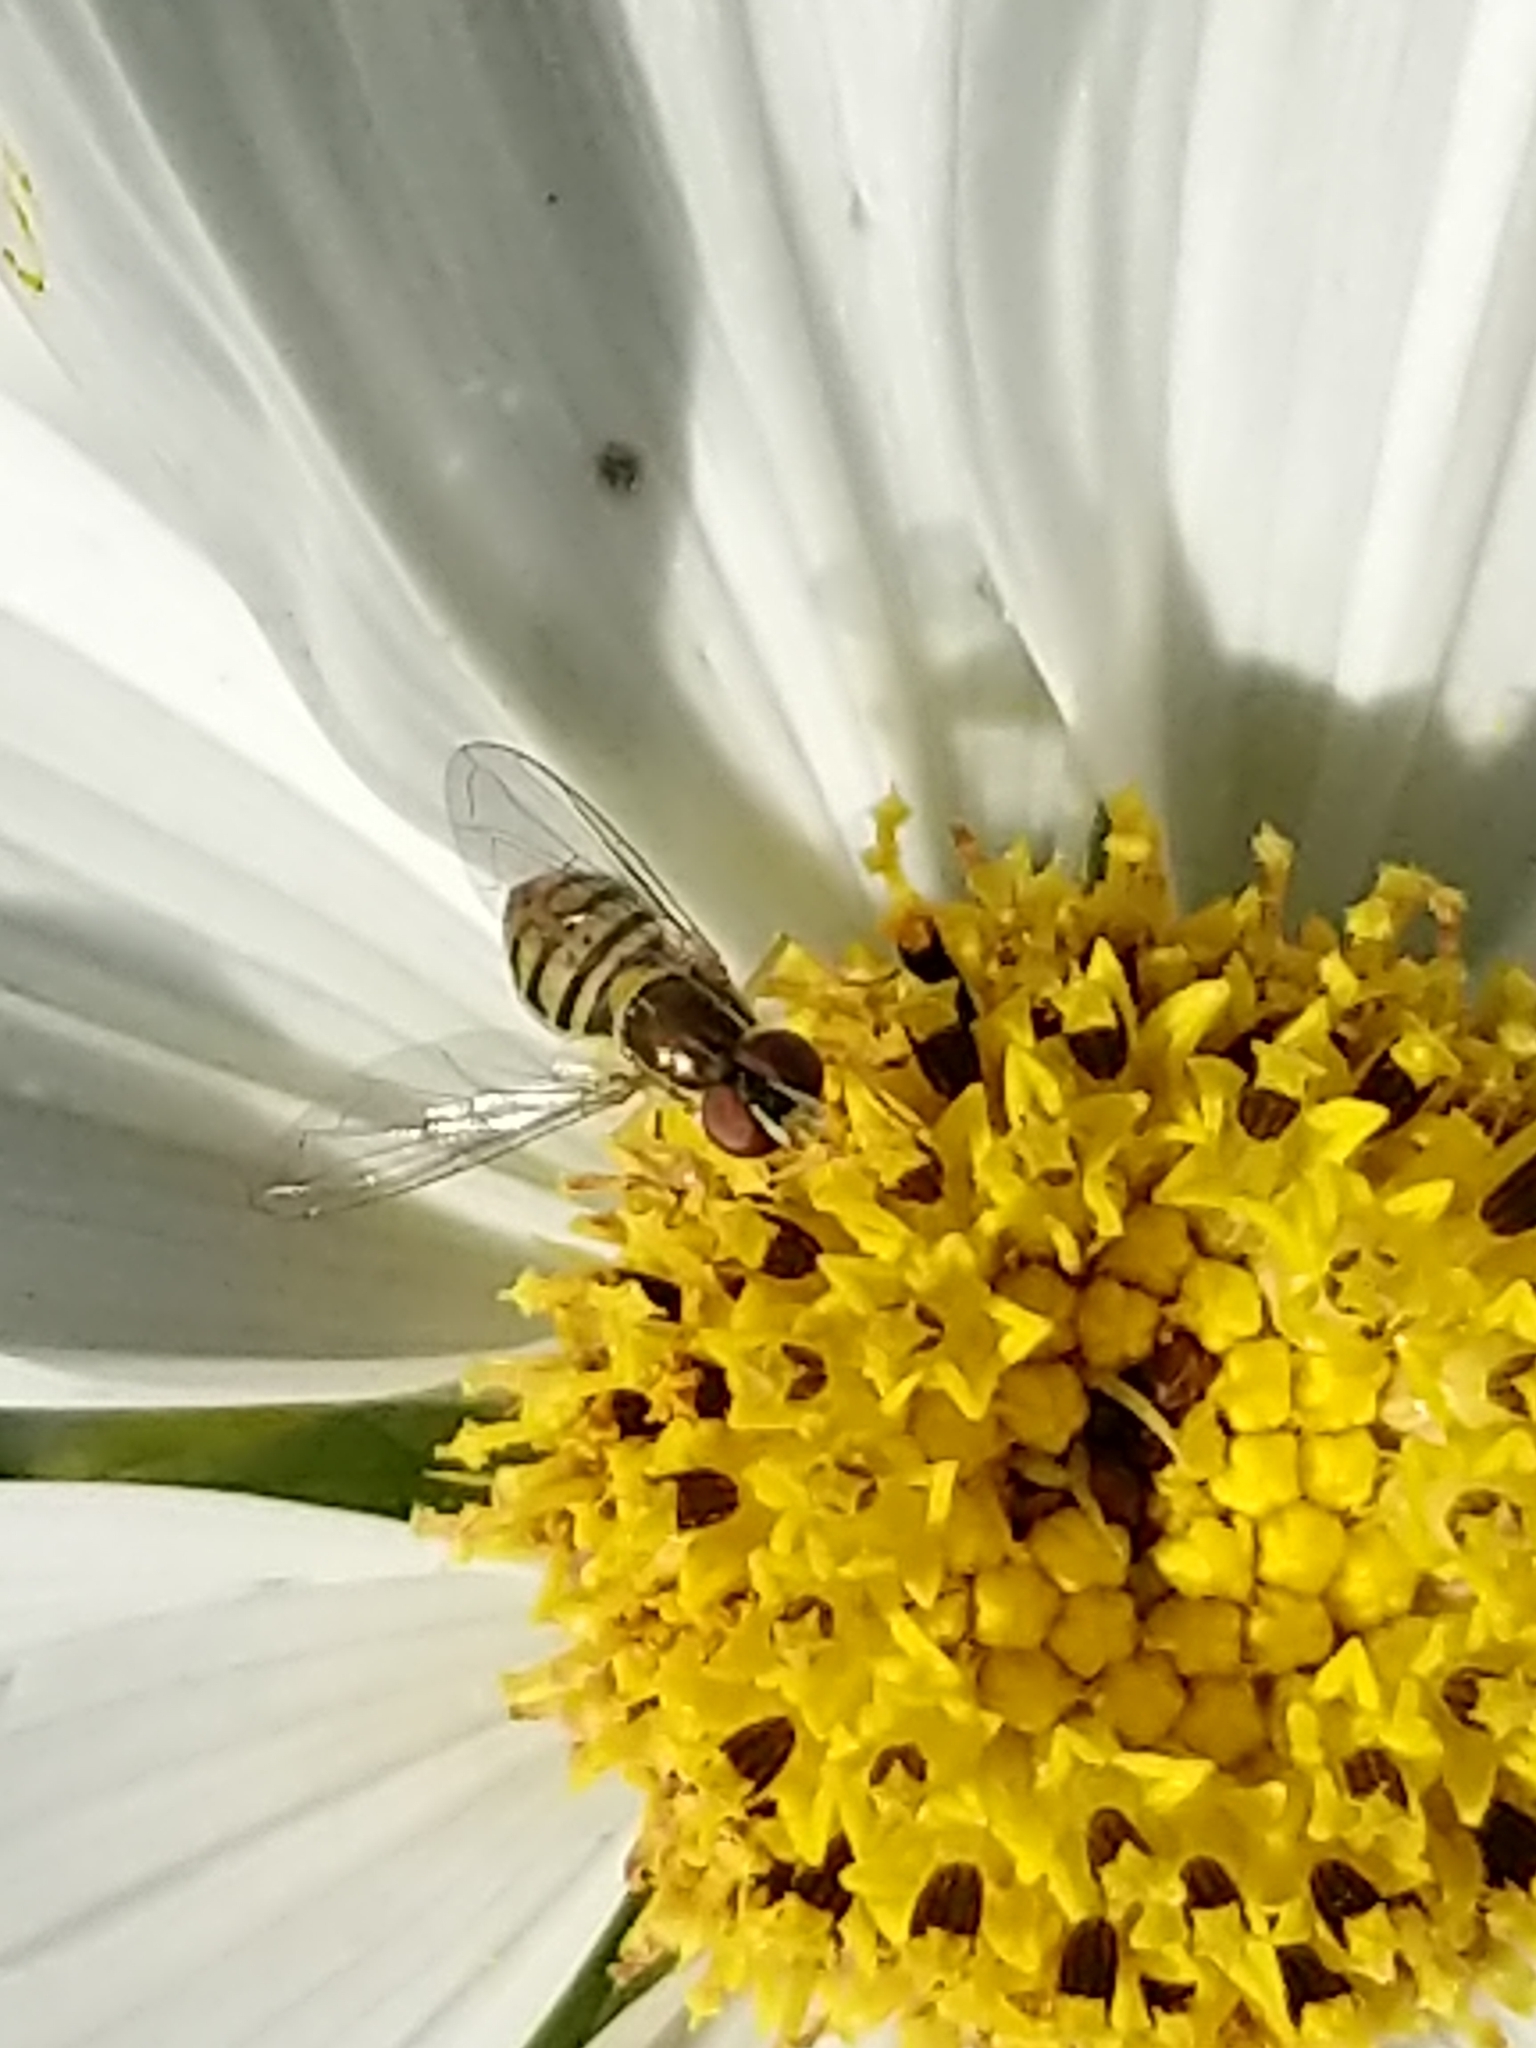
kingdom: Animalia
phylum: Arthropoda
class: Insecta
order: Diptera
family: Syrphidae
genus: Toxomerus
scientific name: Toxomerus marginatus
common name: Syrphid fly
